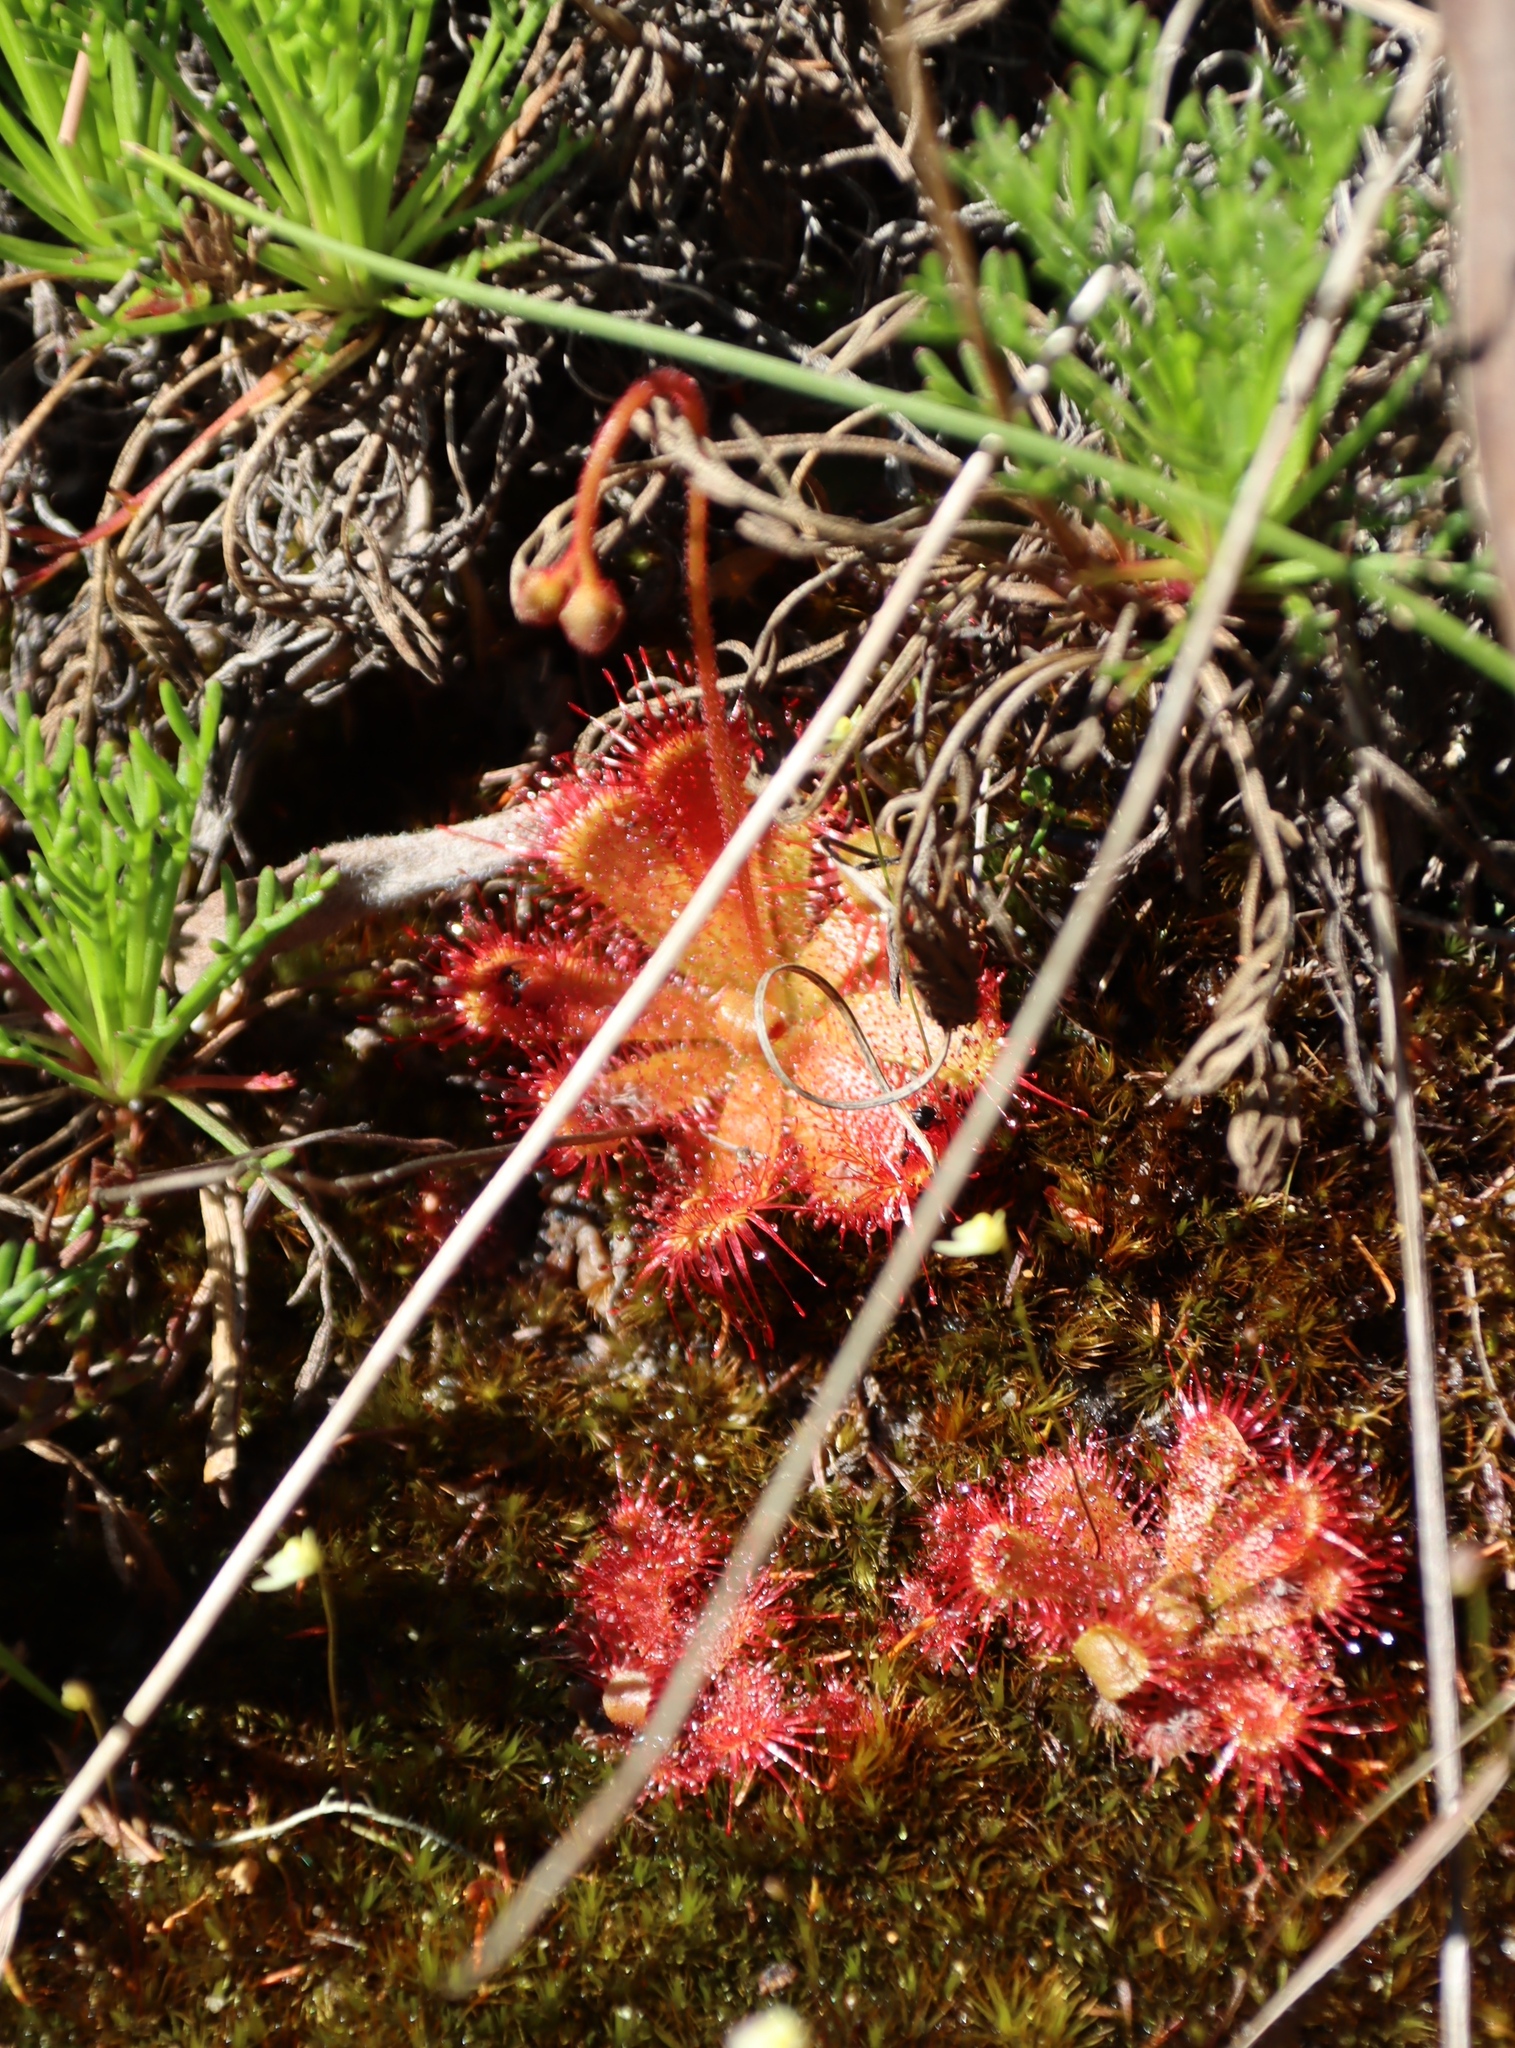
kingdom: Plantae
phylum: Tracheophyta
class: Magnoliopsida
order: Caryophyllales
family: Droseraceae
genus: Drosera
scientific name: Drosera trinervia
